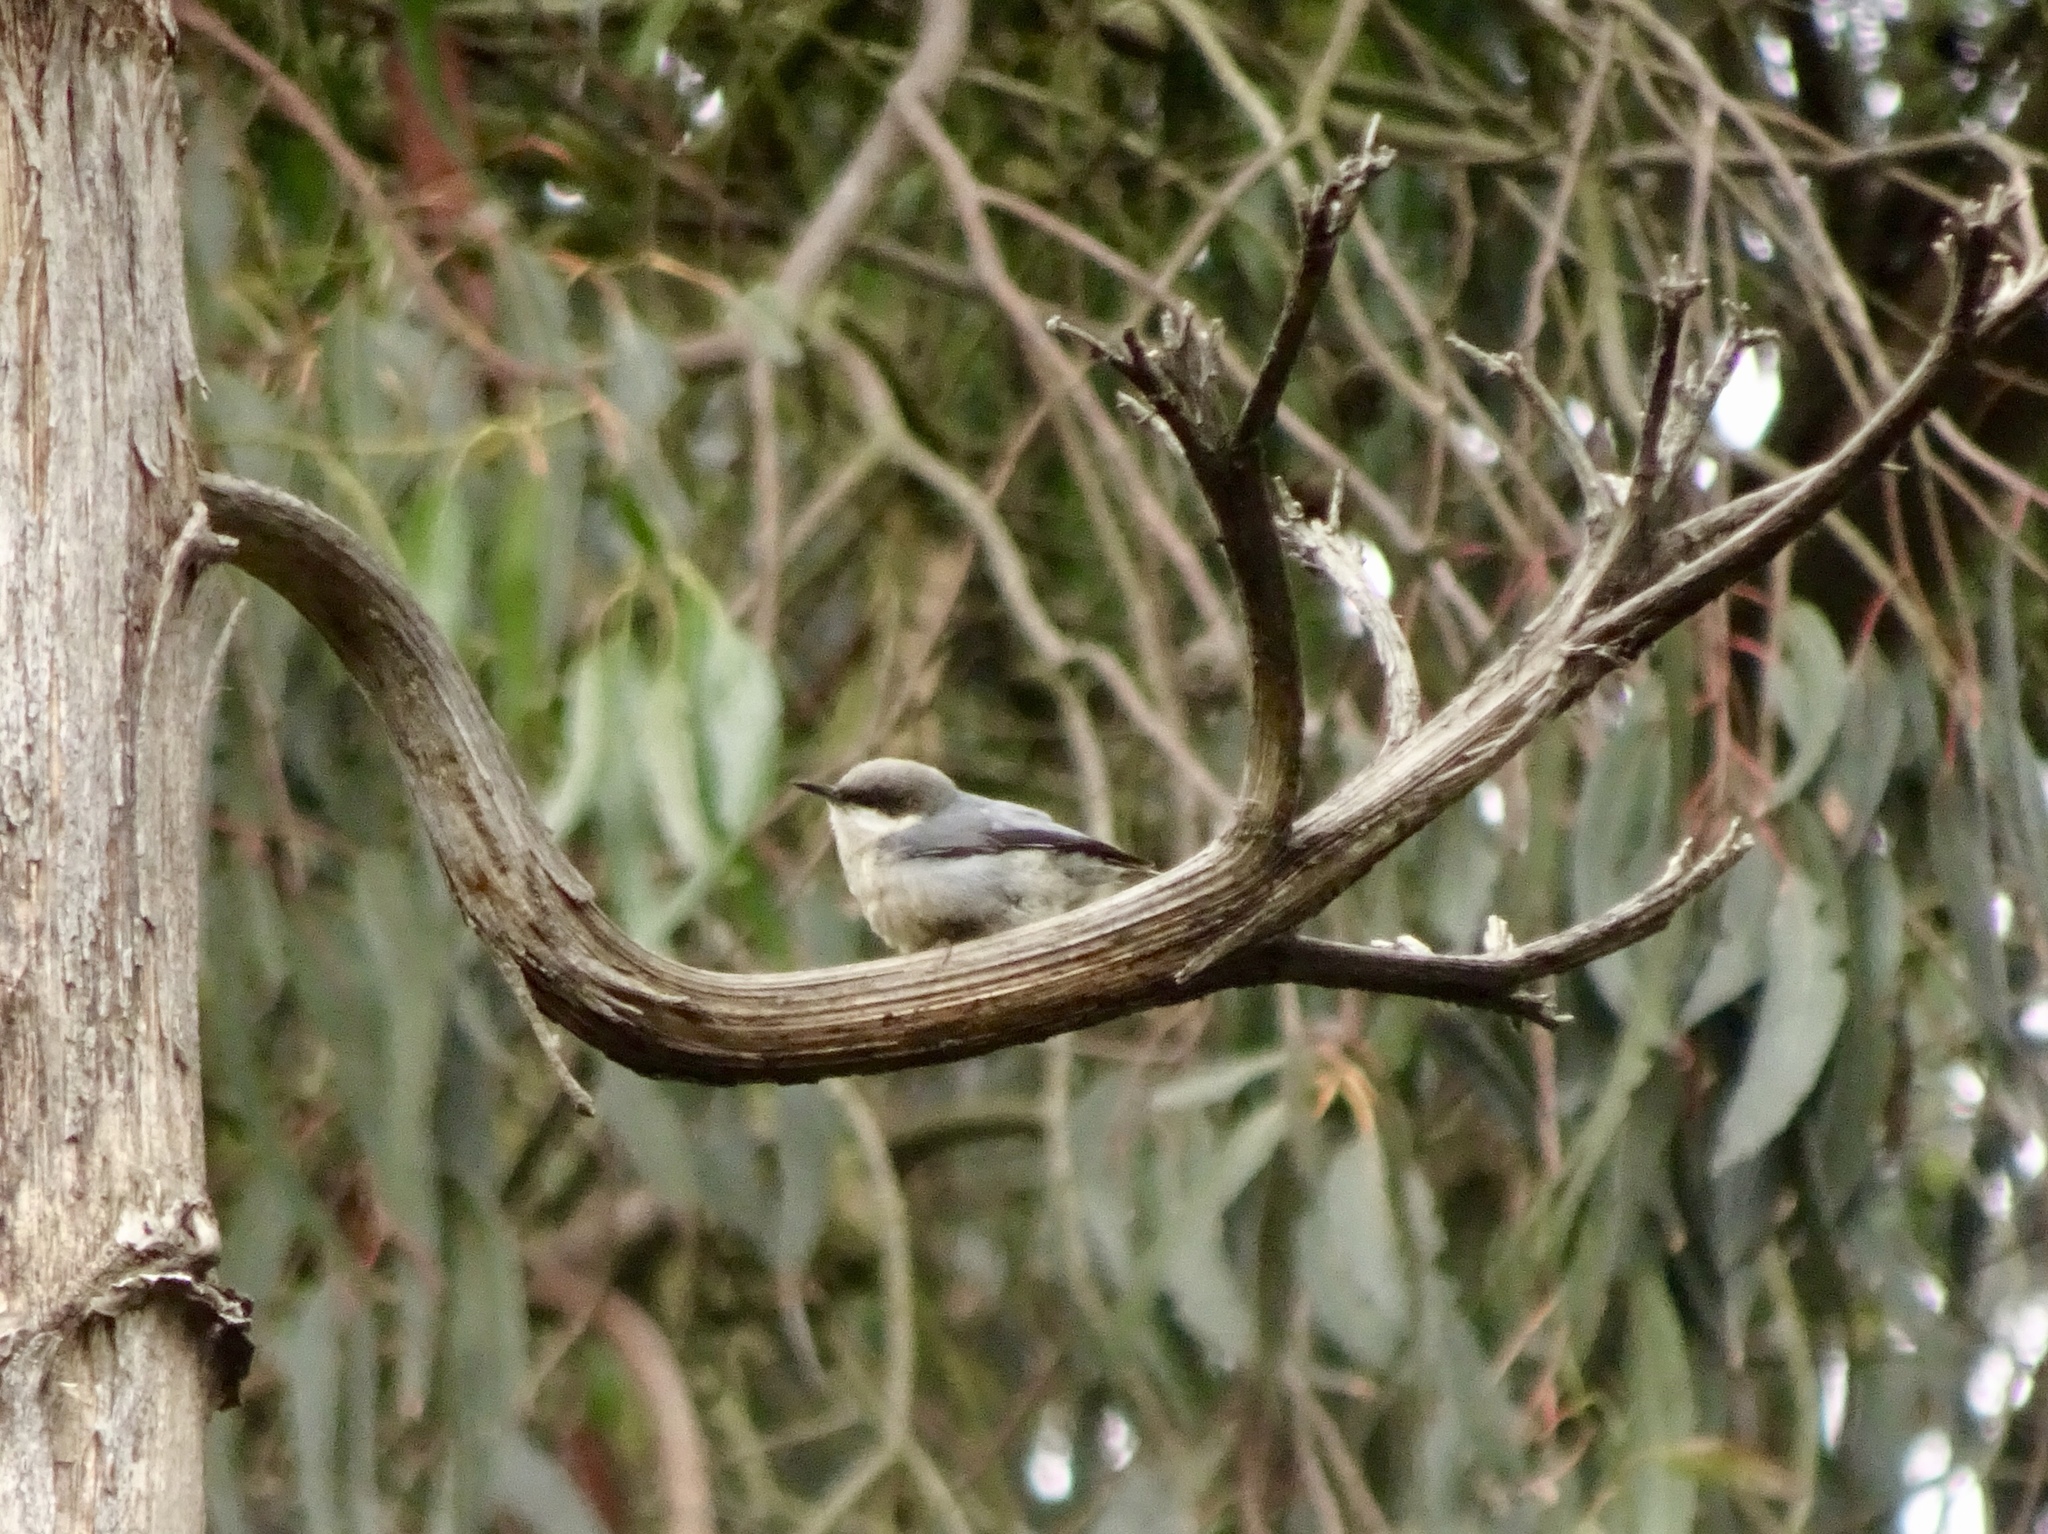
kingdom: Animalia
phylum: Chordata
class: Aves
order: Passeriformes
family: Sittidae
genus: Sitta
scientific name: Sitta pygmaea
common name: Pygmy nuthatch
